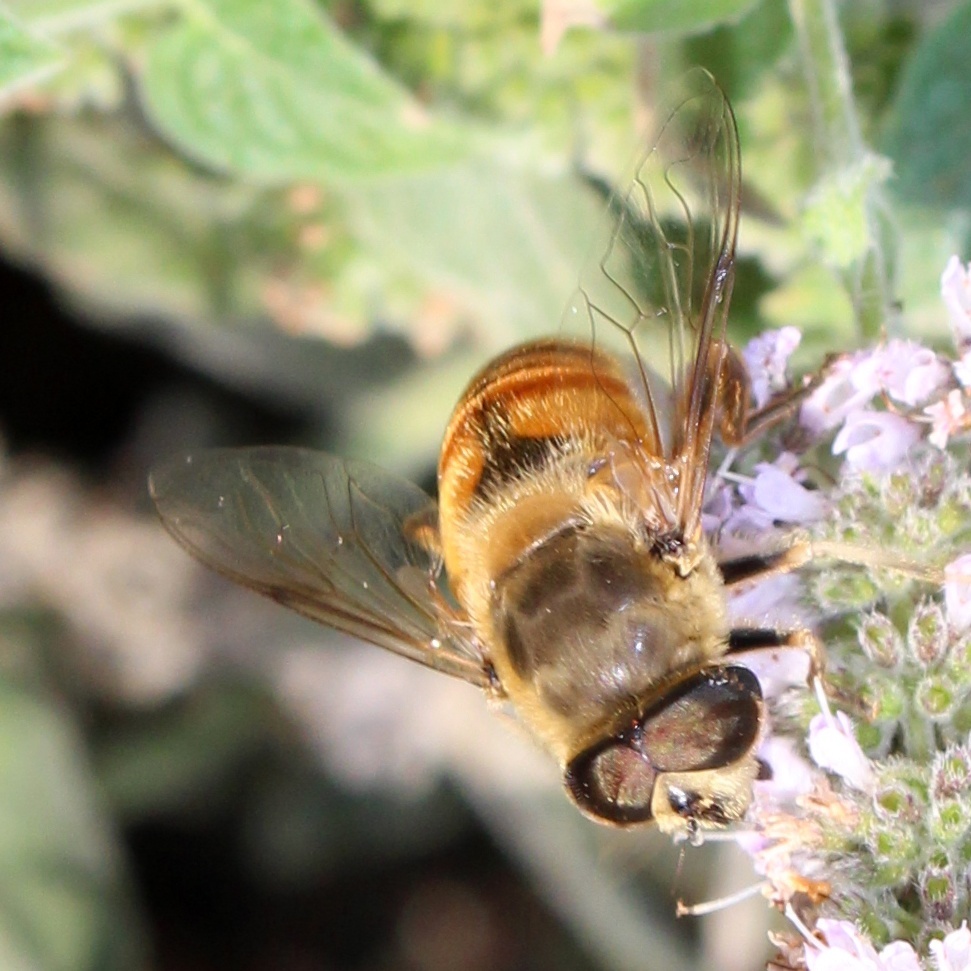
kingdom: Animalia
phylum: Arthropoda
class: Insecta
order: Diptera
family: Syrphidae
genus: Eristalis
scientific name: Eristalis tenax
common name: Drone fly
